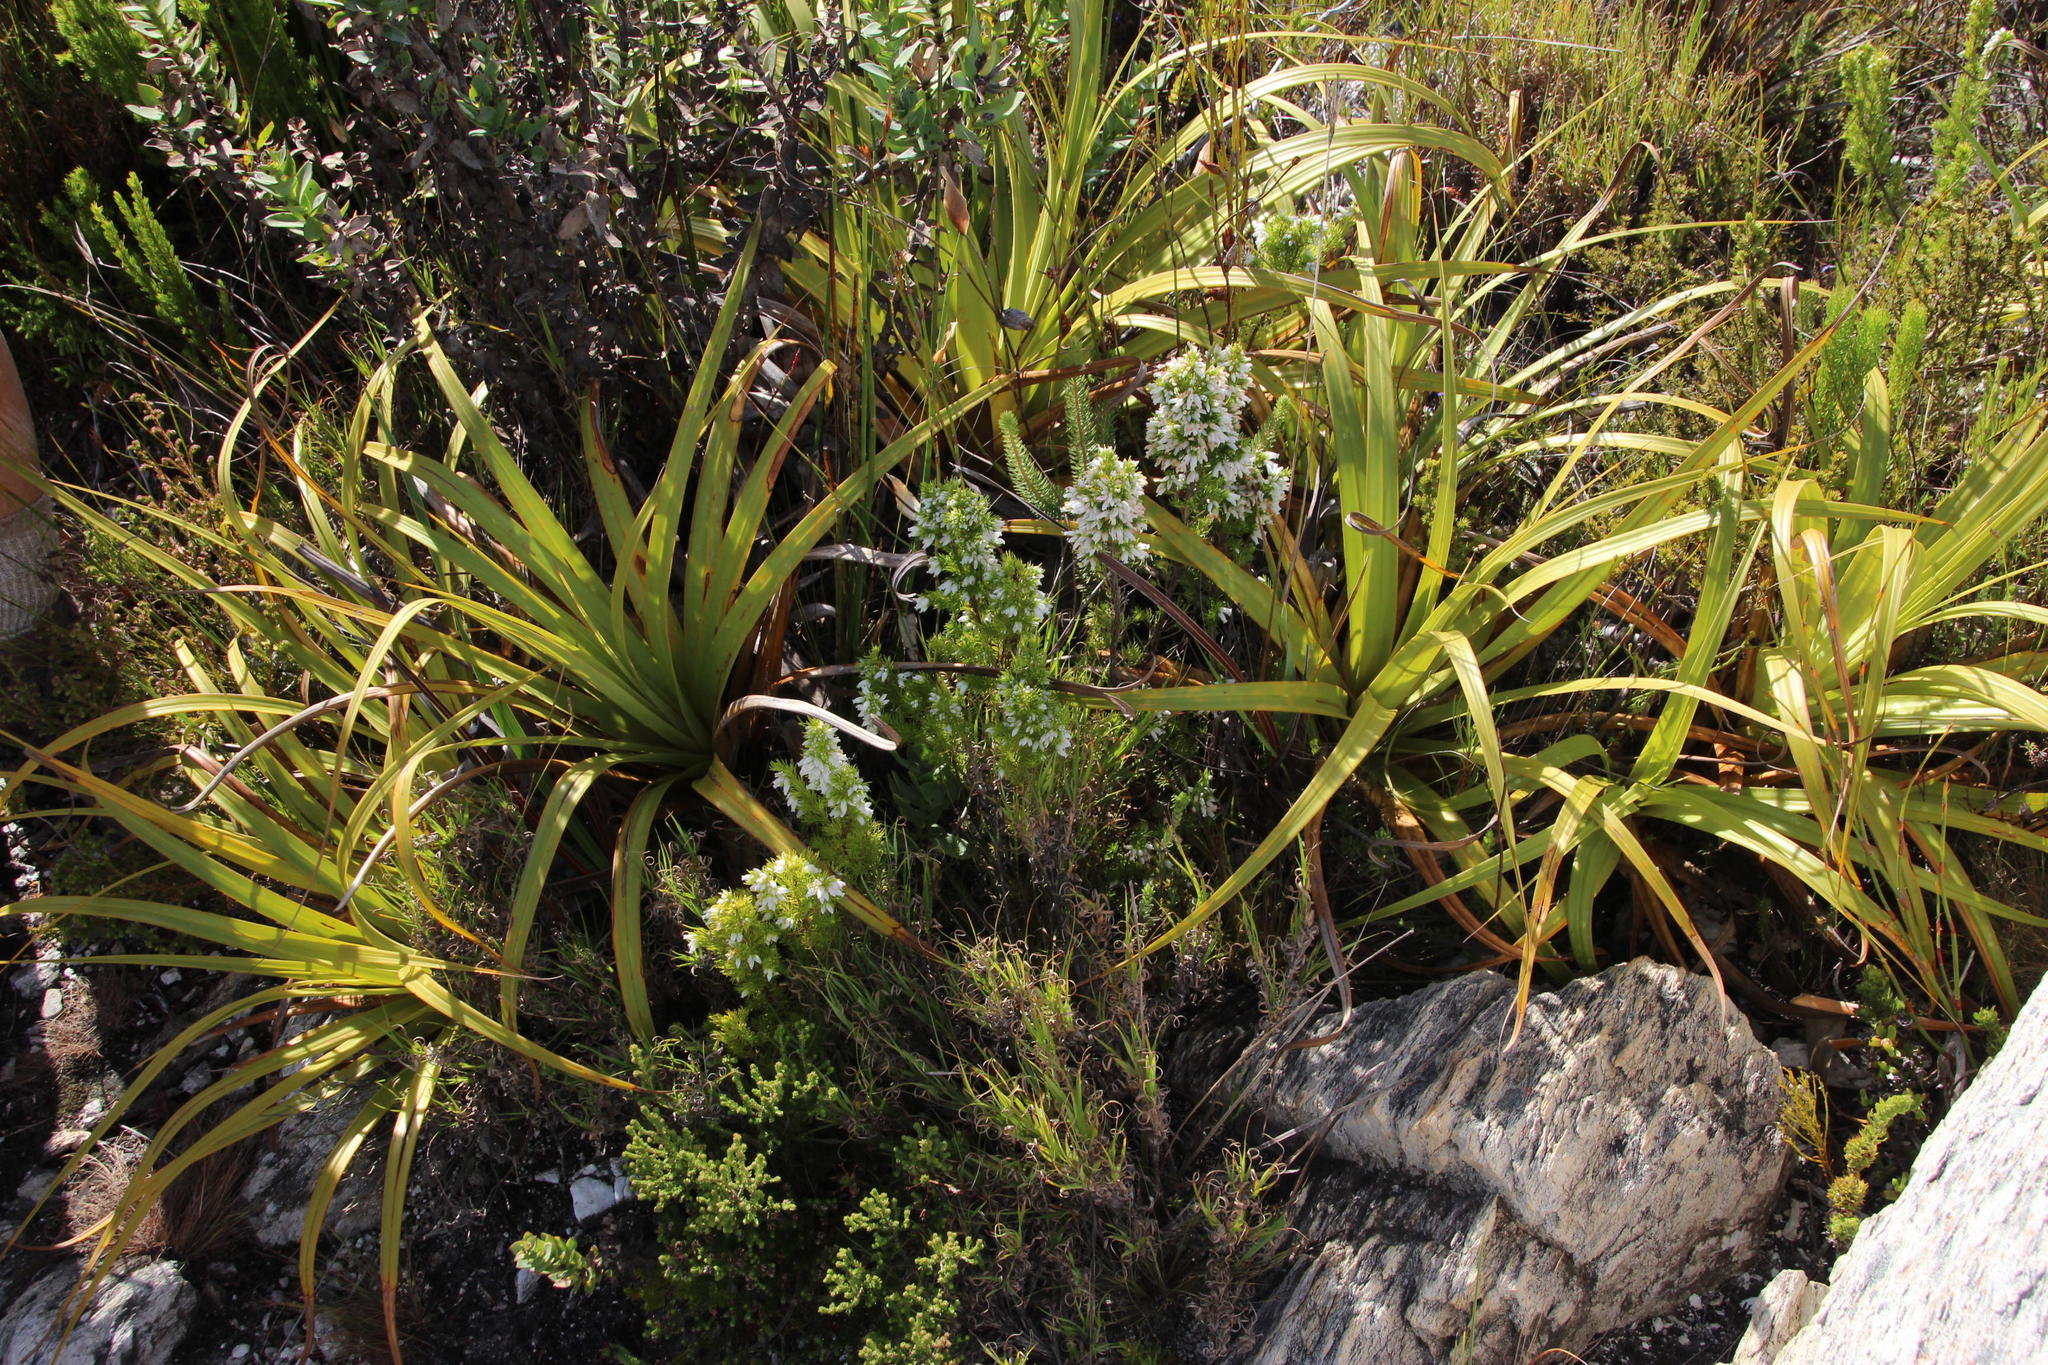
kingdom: Plantae
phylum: Tracheophyta
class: Magnoliopsida
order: Ericales
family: Ericaceae
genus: Erica
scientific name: Erica sitiens
